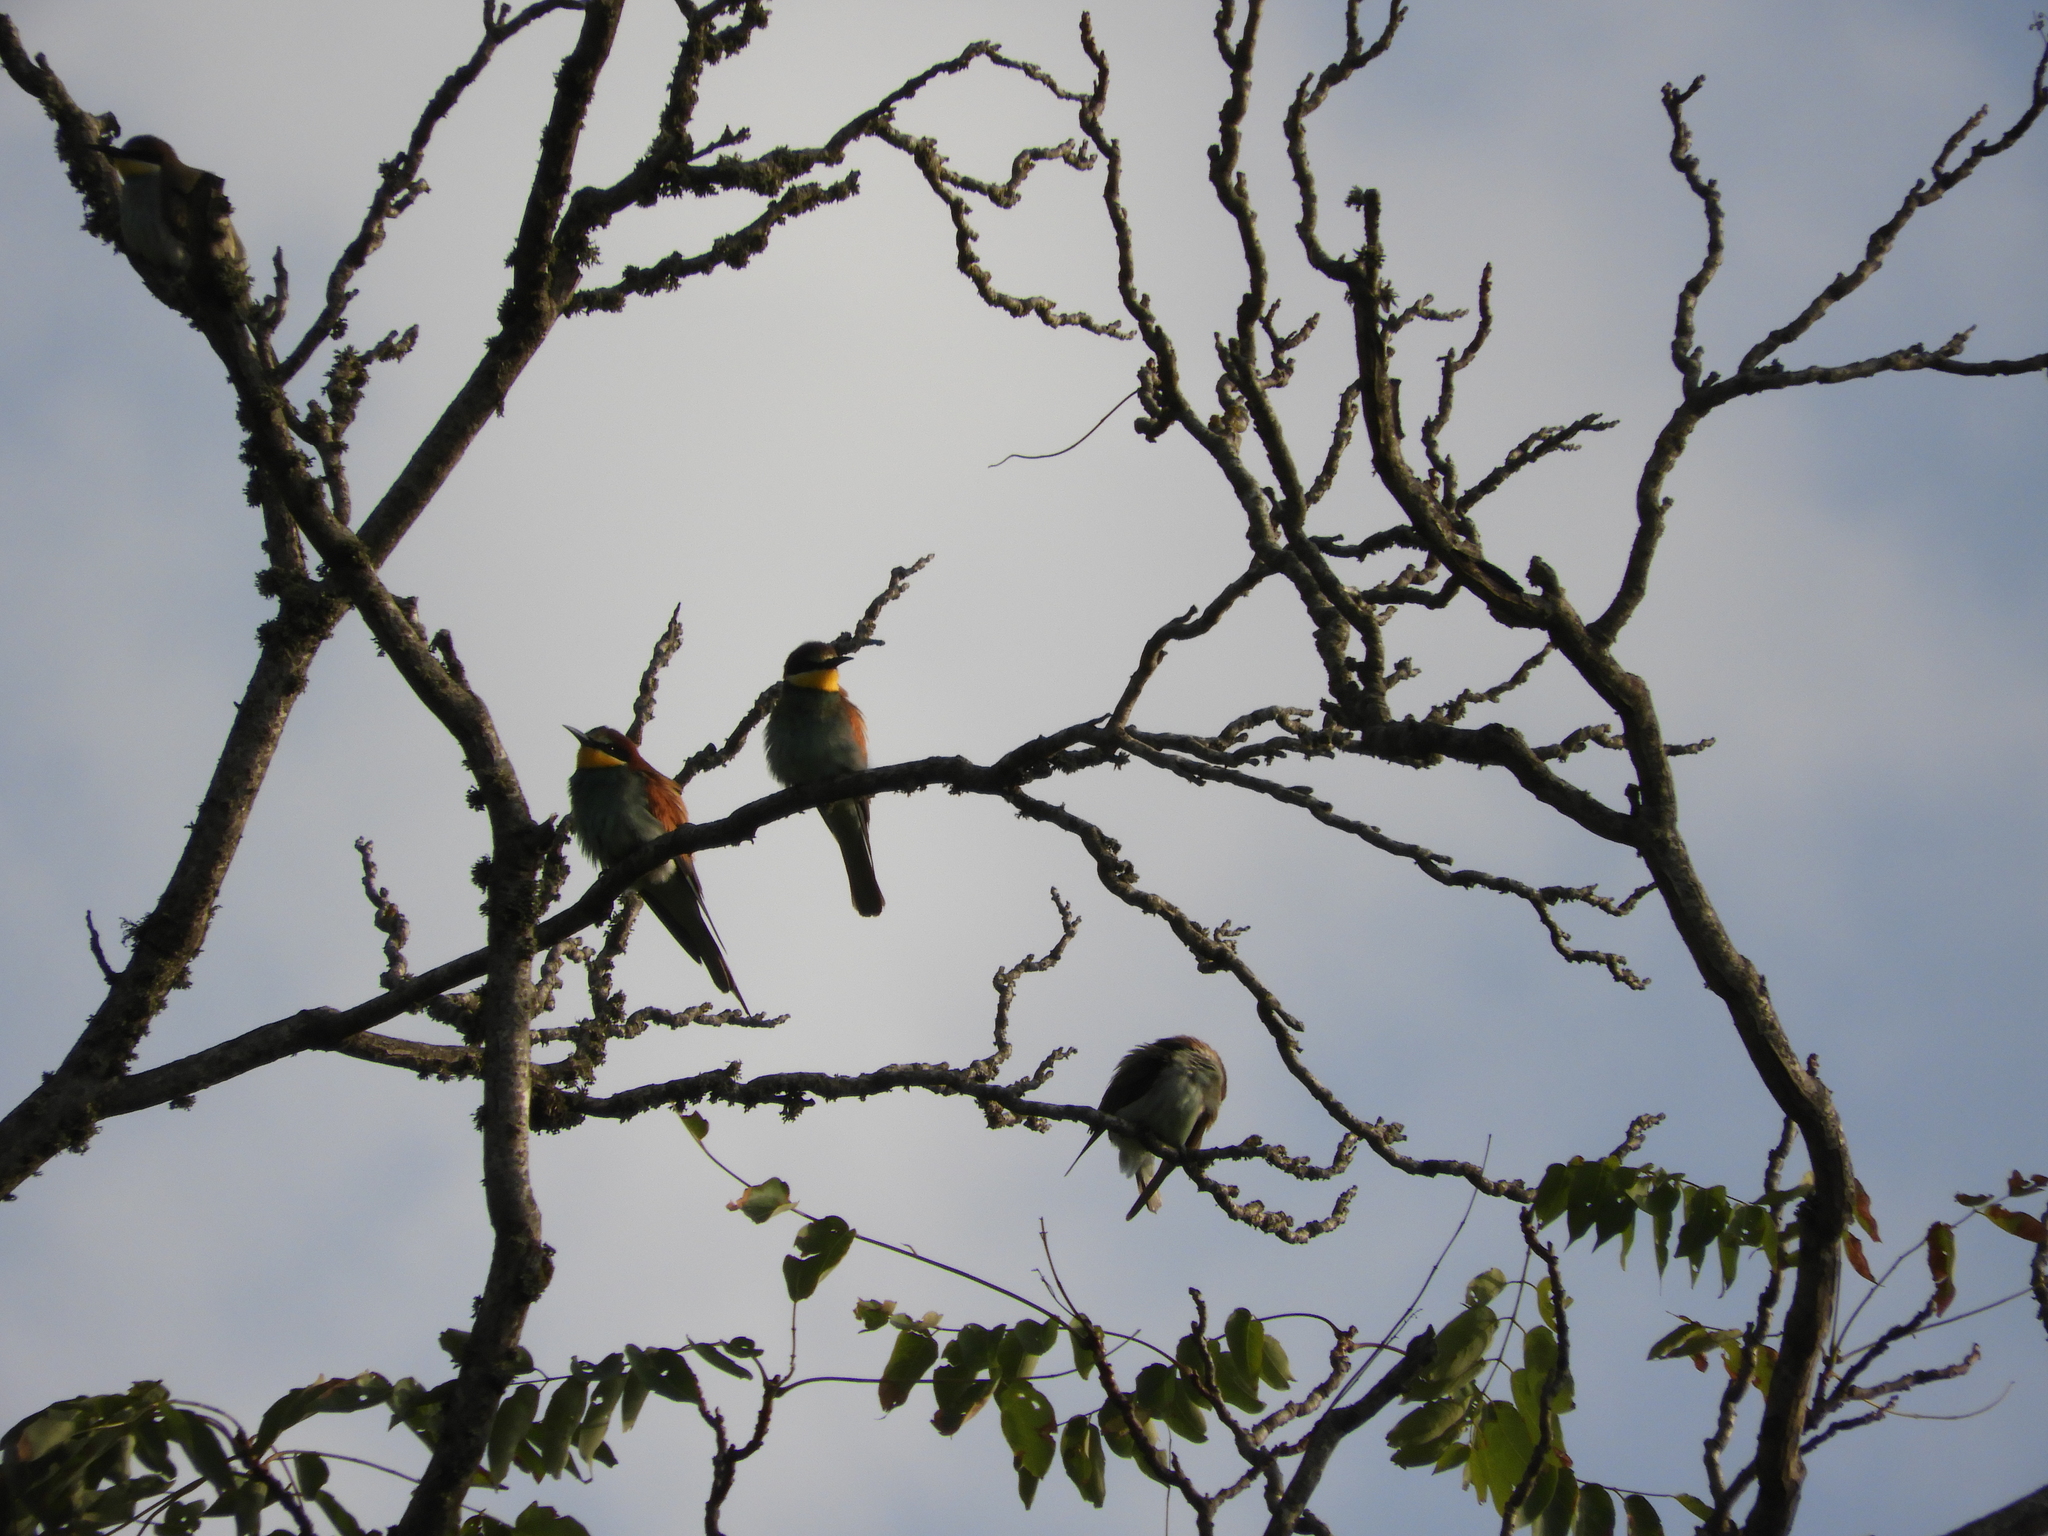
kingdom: Animalia
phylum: Chordata
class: Aves
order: Coraciiformes
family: Meropidae
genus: Merops
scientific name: Merops apiaster
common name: European bee-eater
